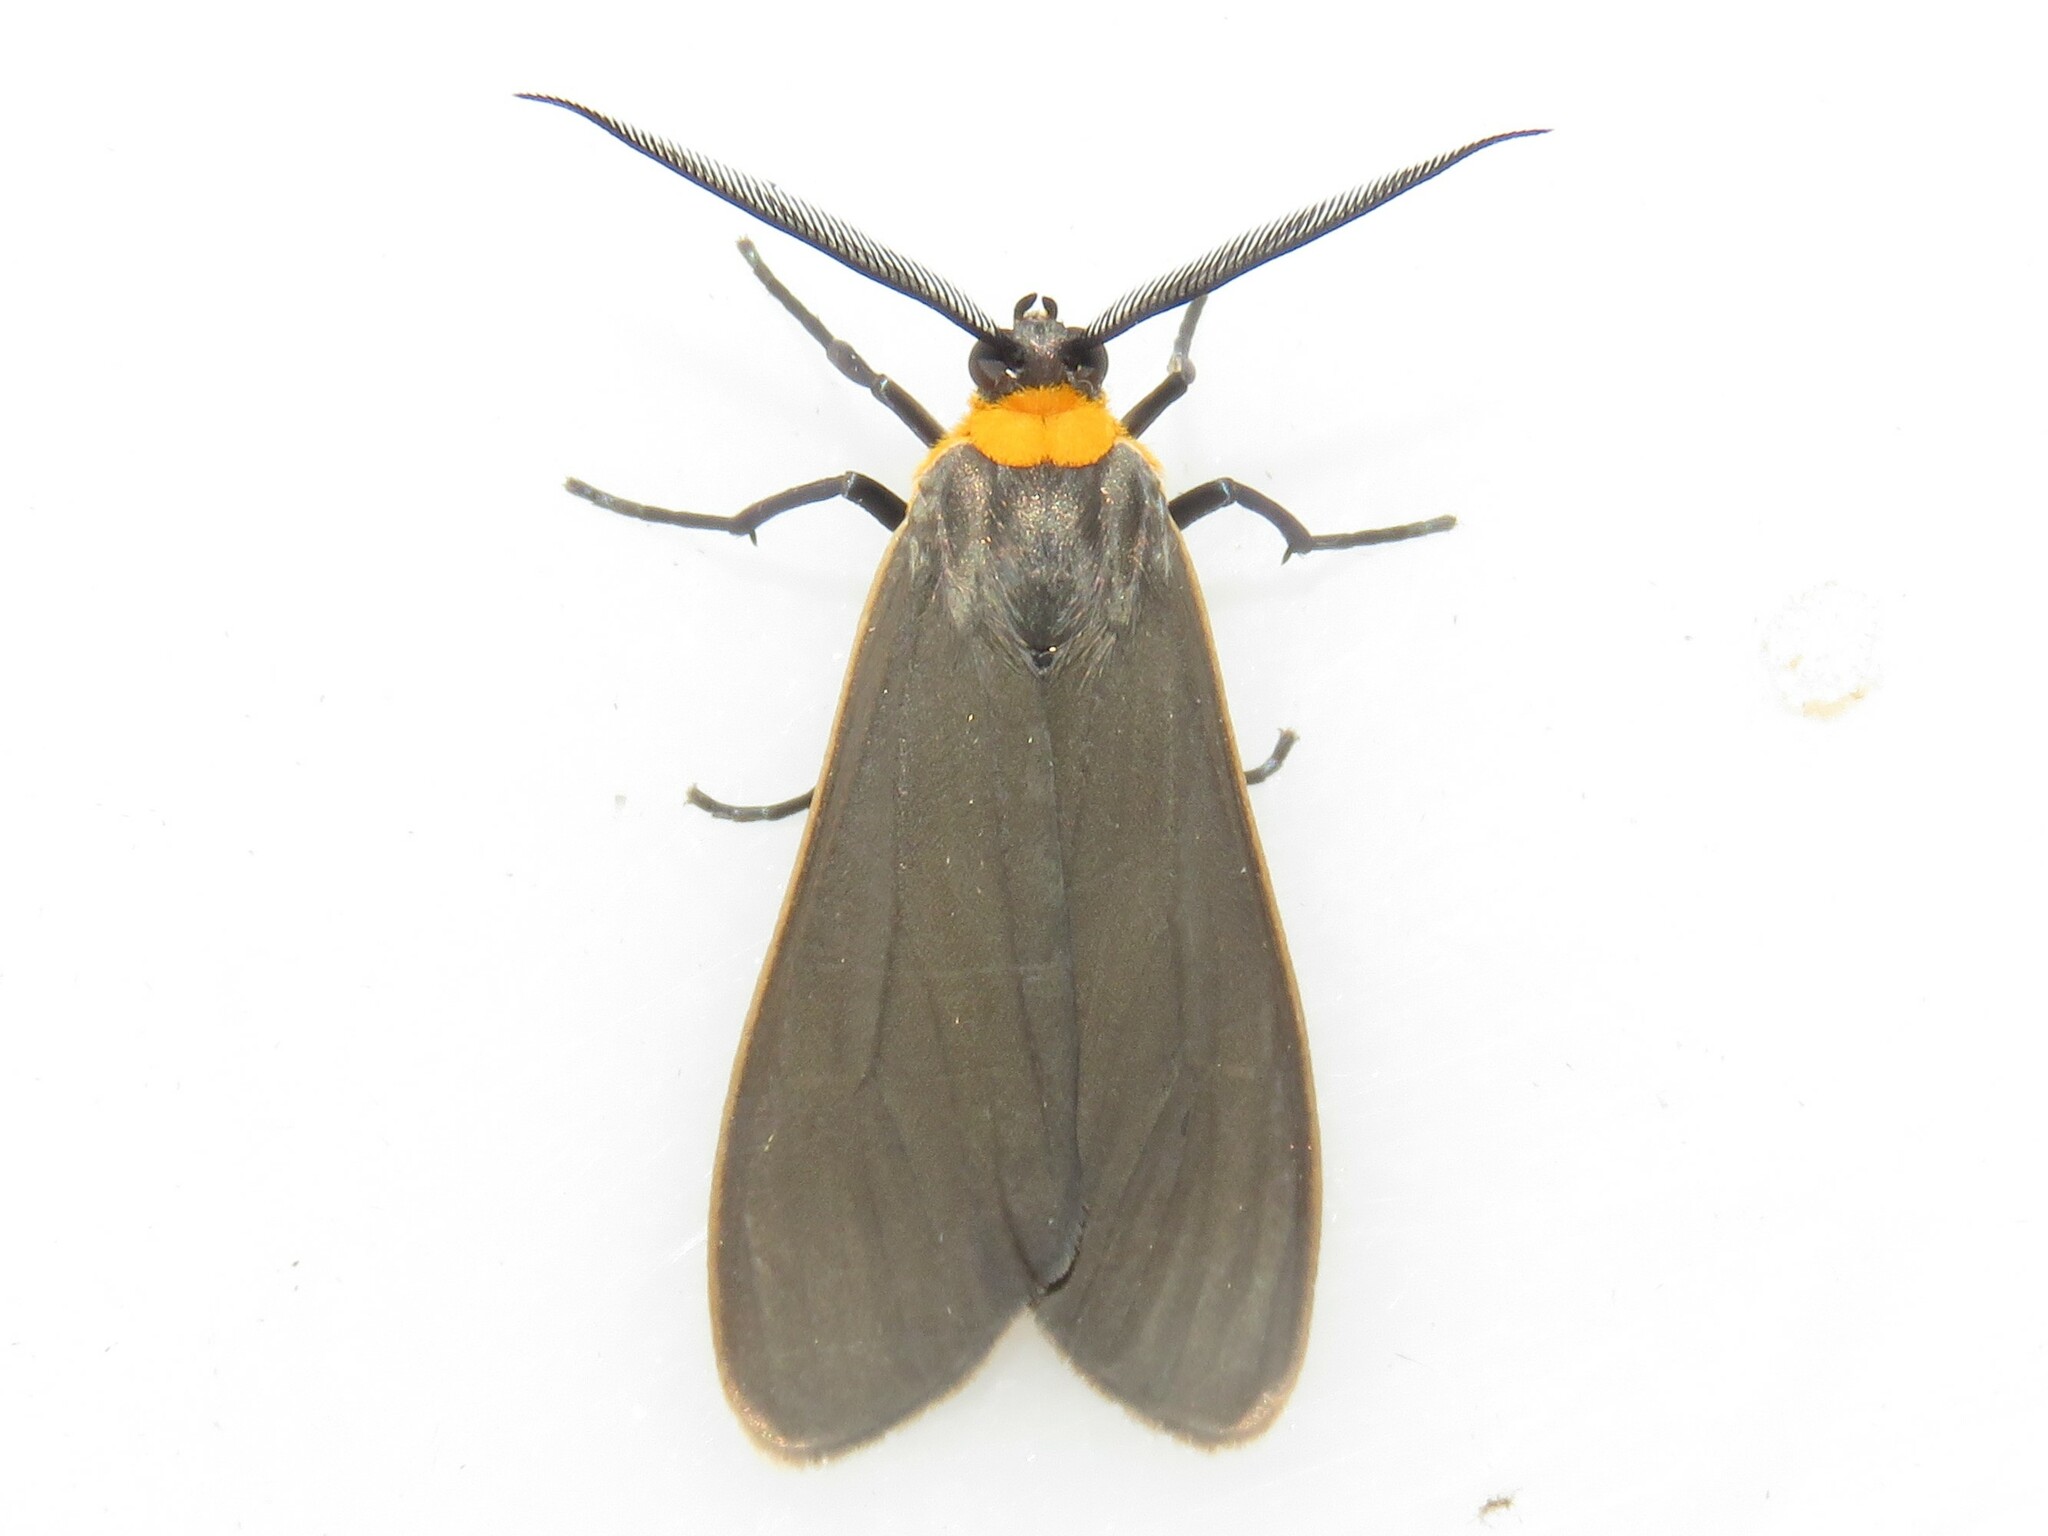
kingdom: Animalia
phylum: Arthropoda
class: Insecta
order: Lepidoptera
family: Erebidae
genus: Cisseps
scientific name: Cisseps fulvicollis
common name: Yellow-collared scape moth
